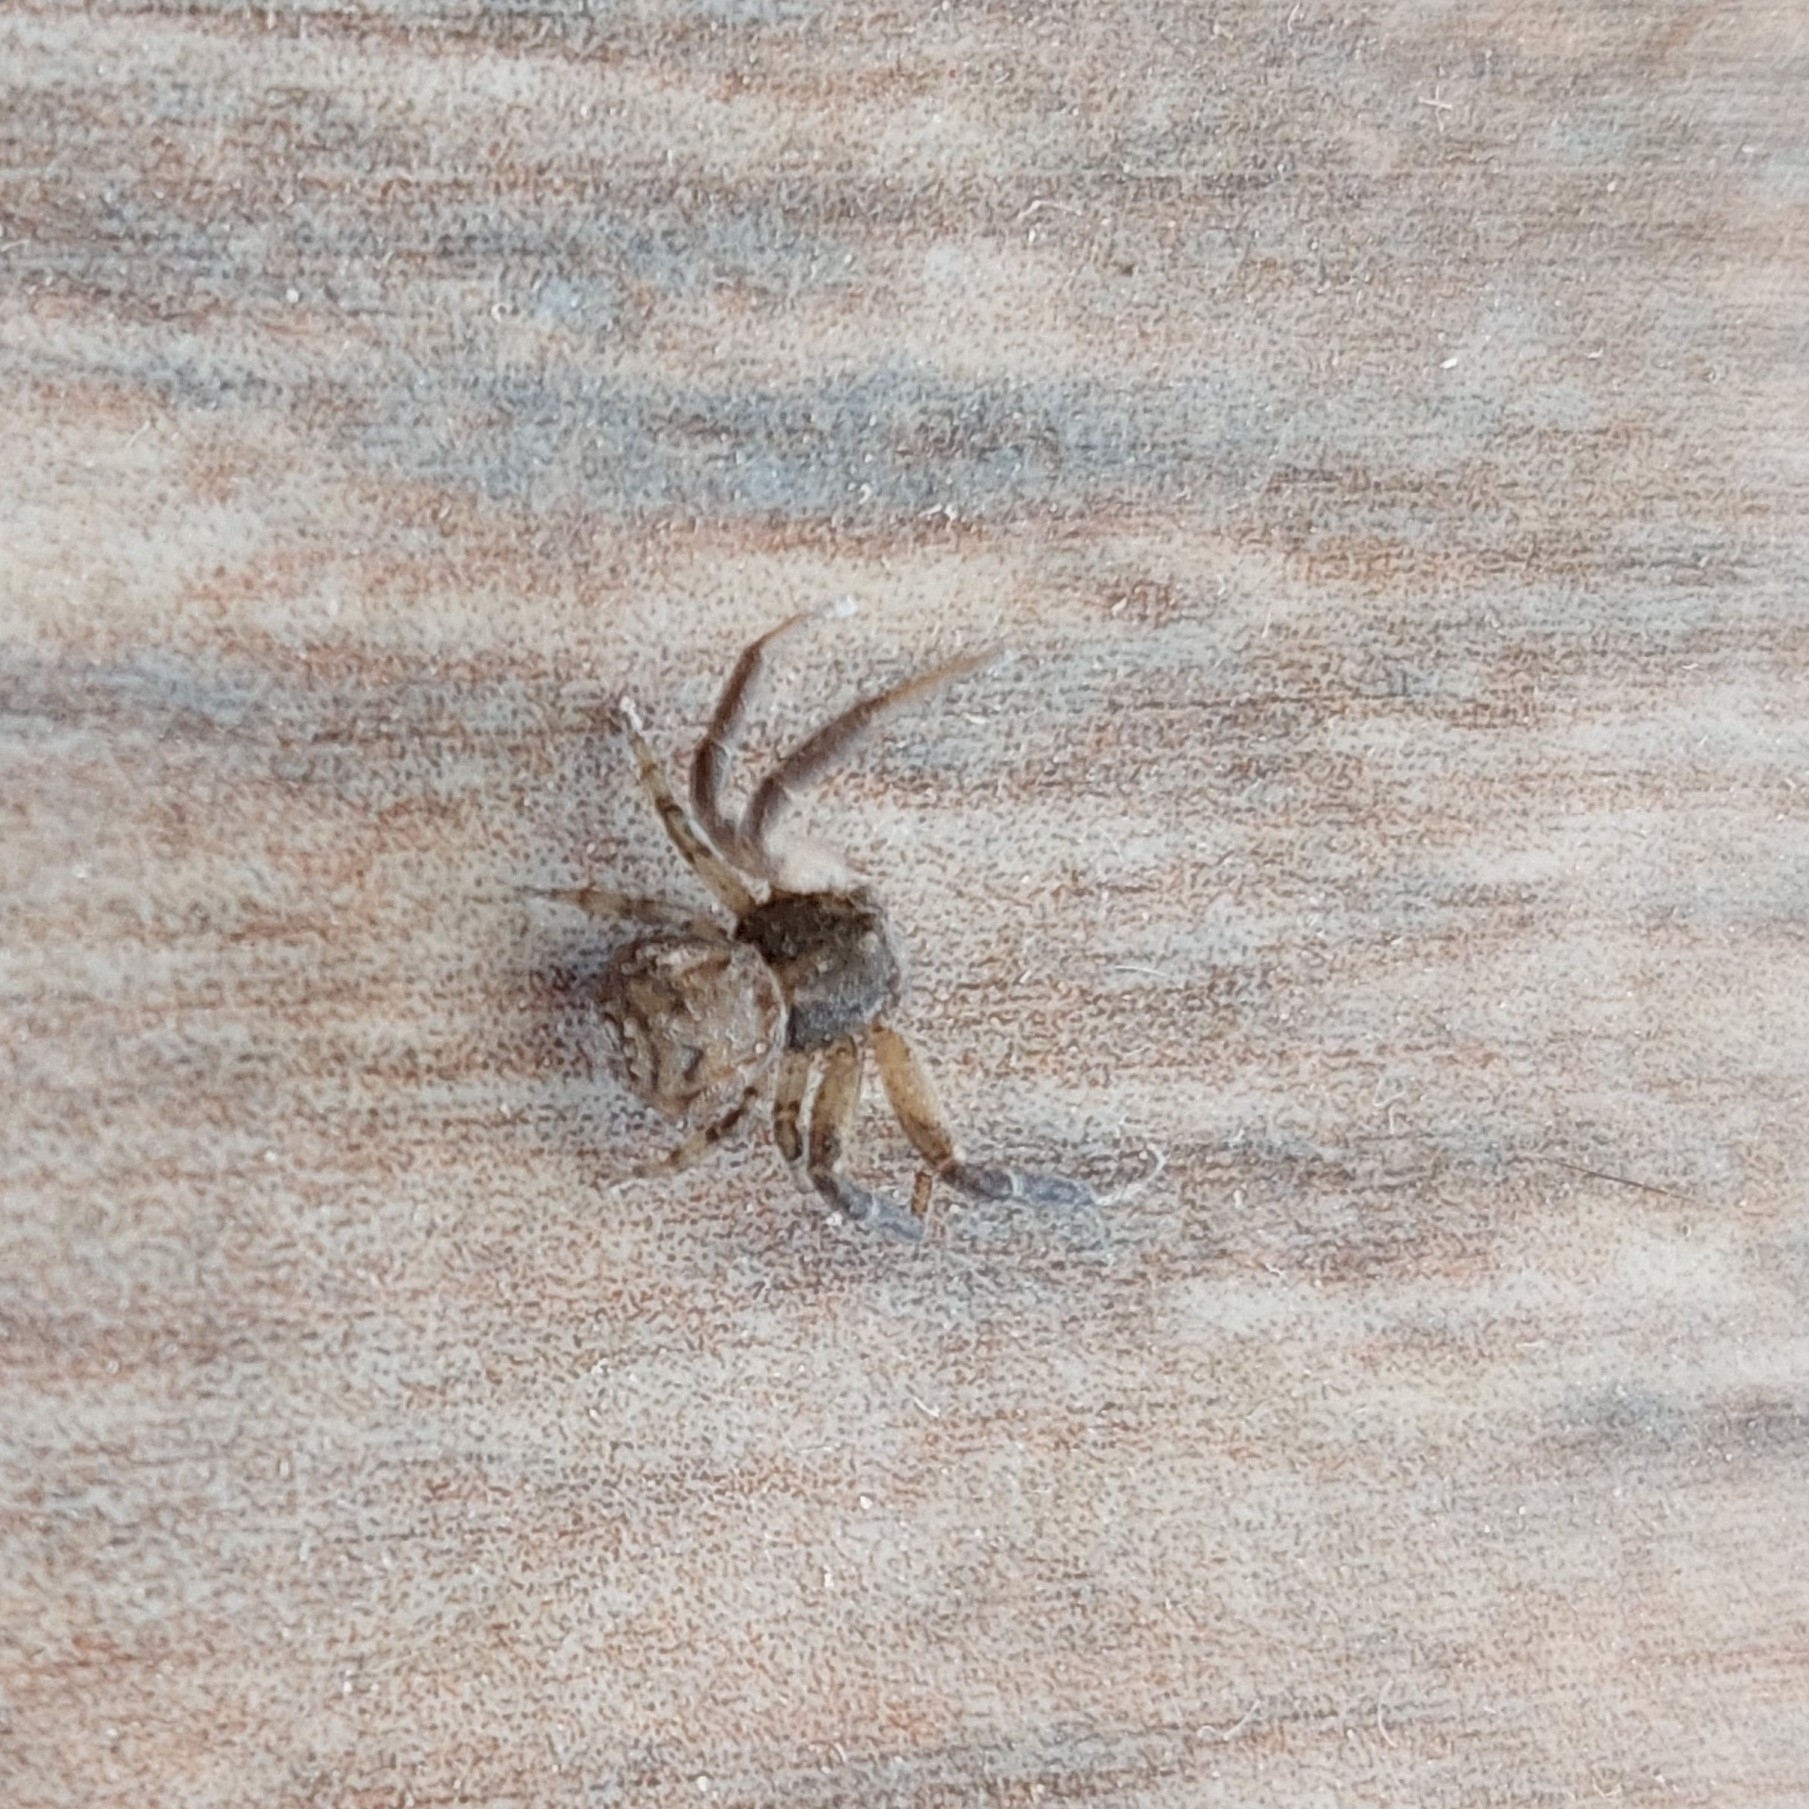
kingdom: Animalia
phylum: Arthropoda
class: Arachnida
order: Araneae
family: Thomisidae
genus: Misumenoides
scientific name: Misumenoides athleticus
